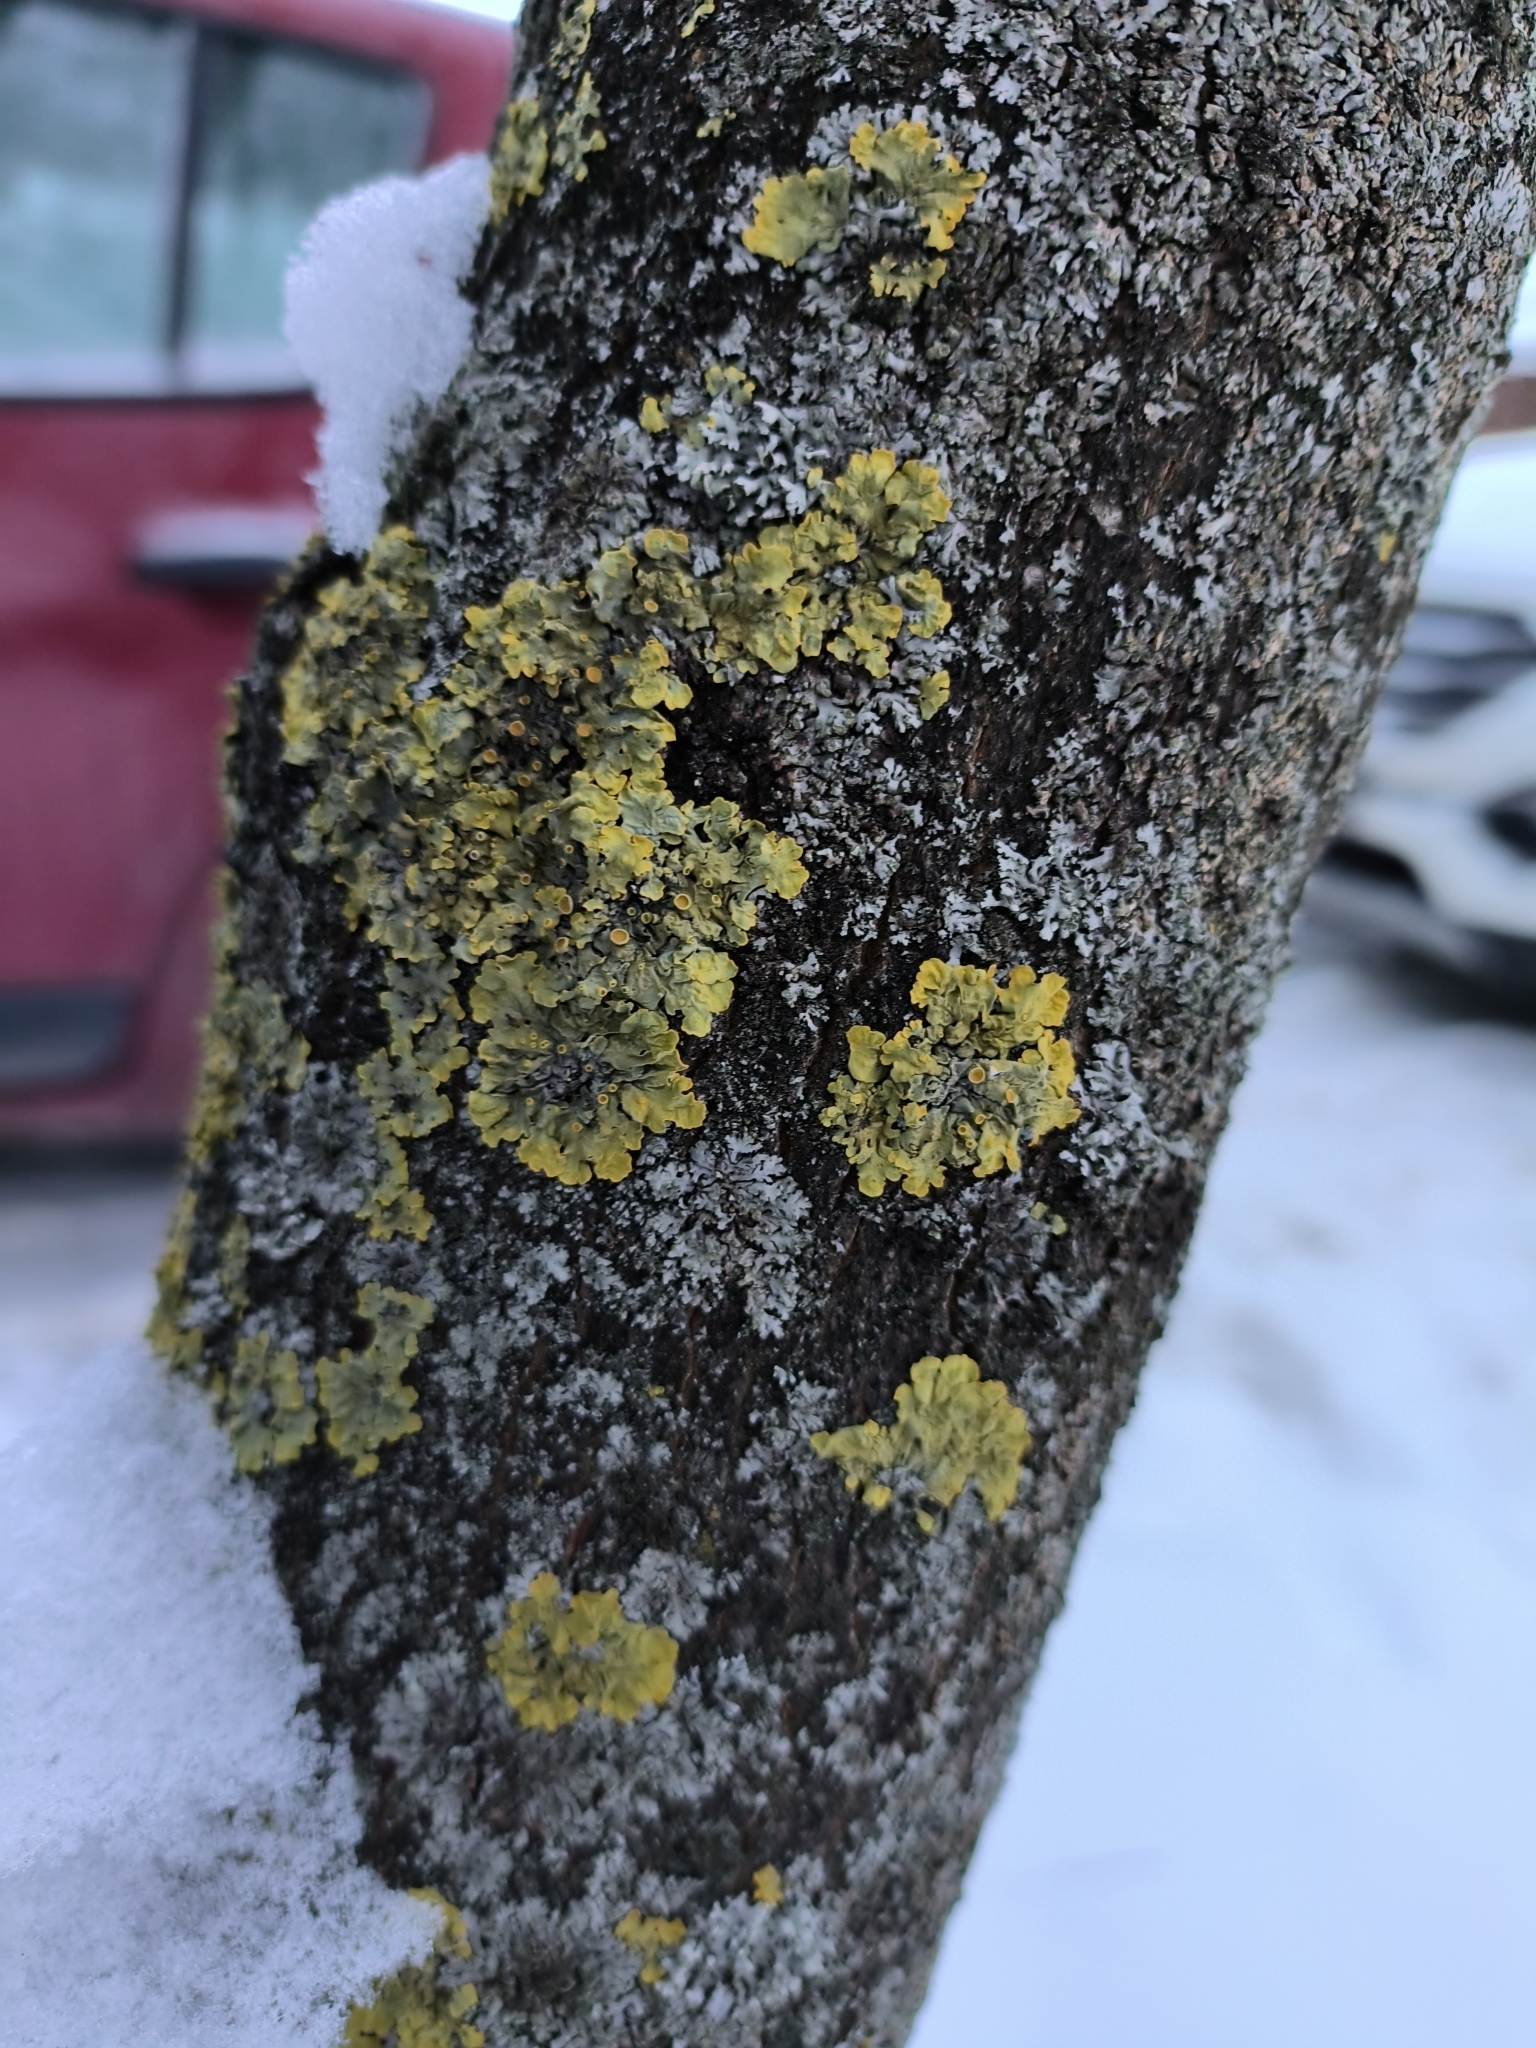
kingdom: Fungi
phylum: Ascomycota
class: Lecanoromycetes
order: Teloschistales
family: Teloschistaceae
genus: Xanthoria
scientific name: Xanthoria parietina
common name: Common orange lichen
